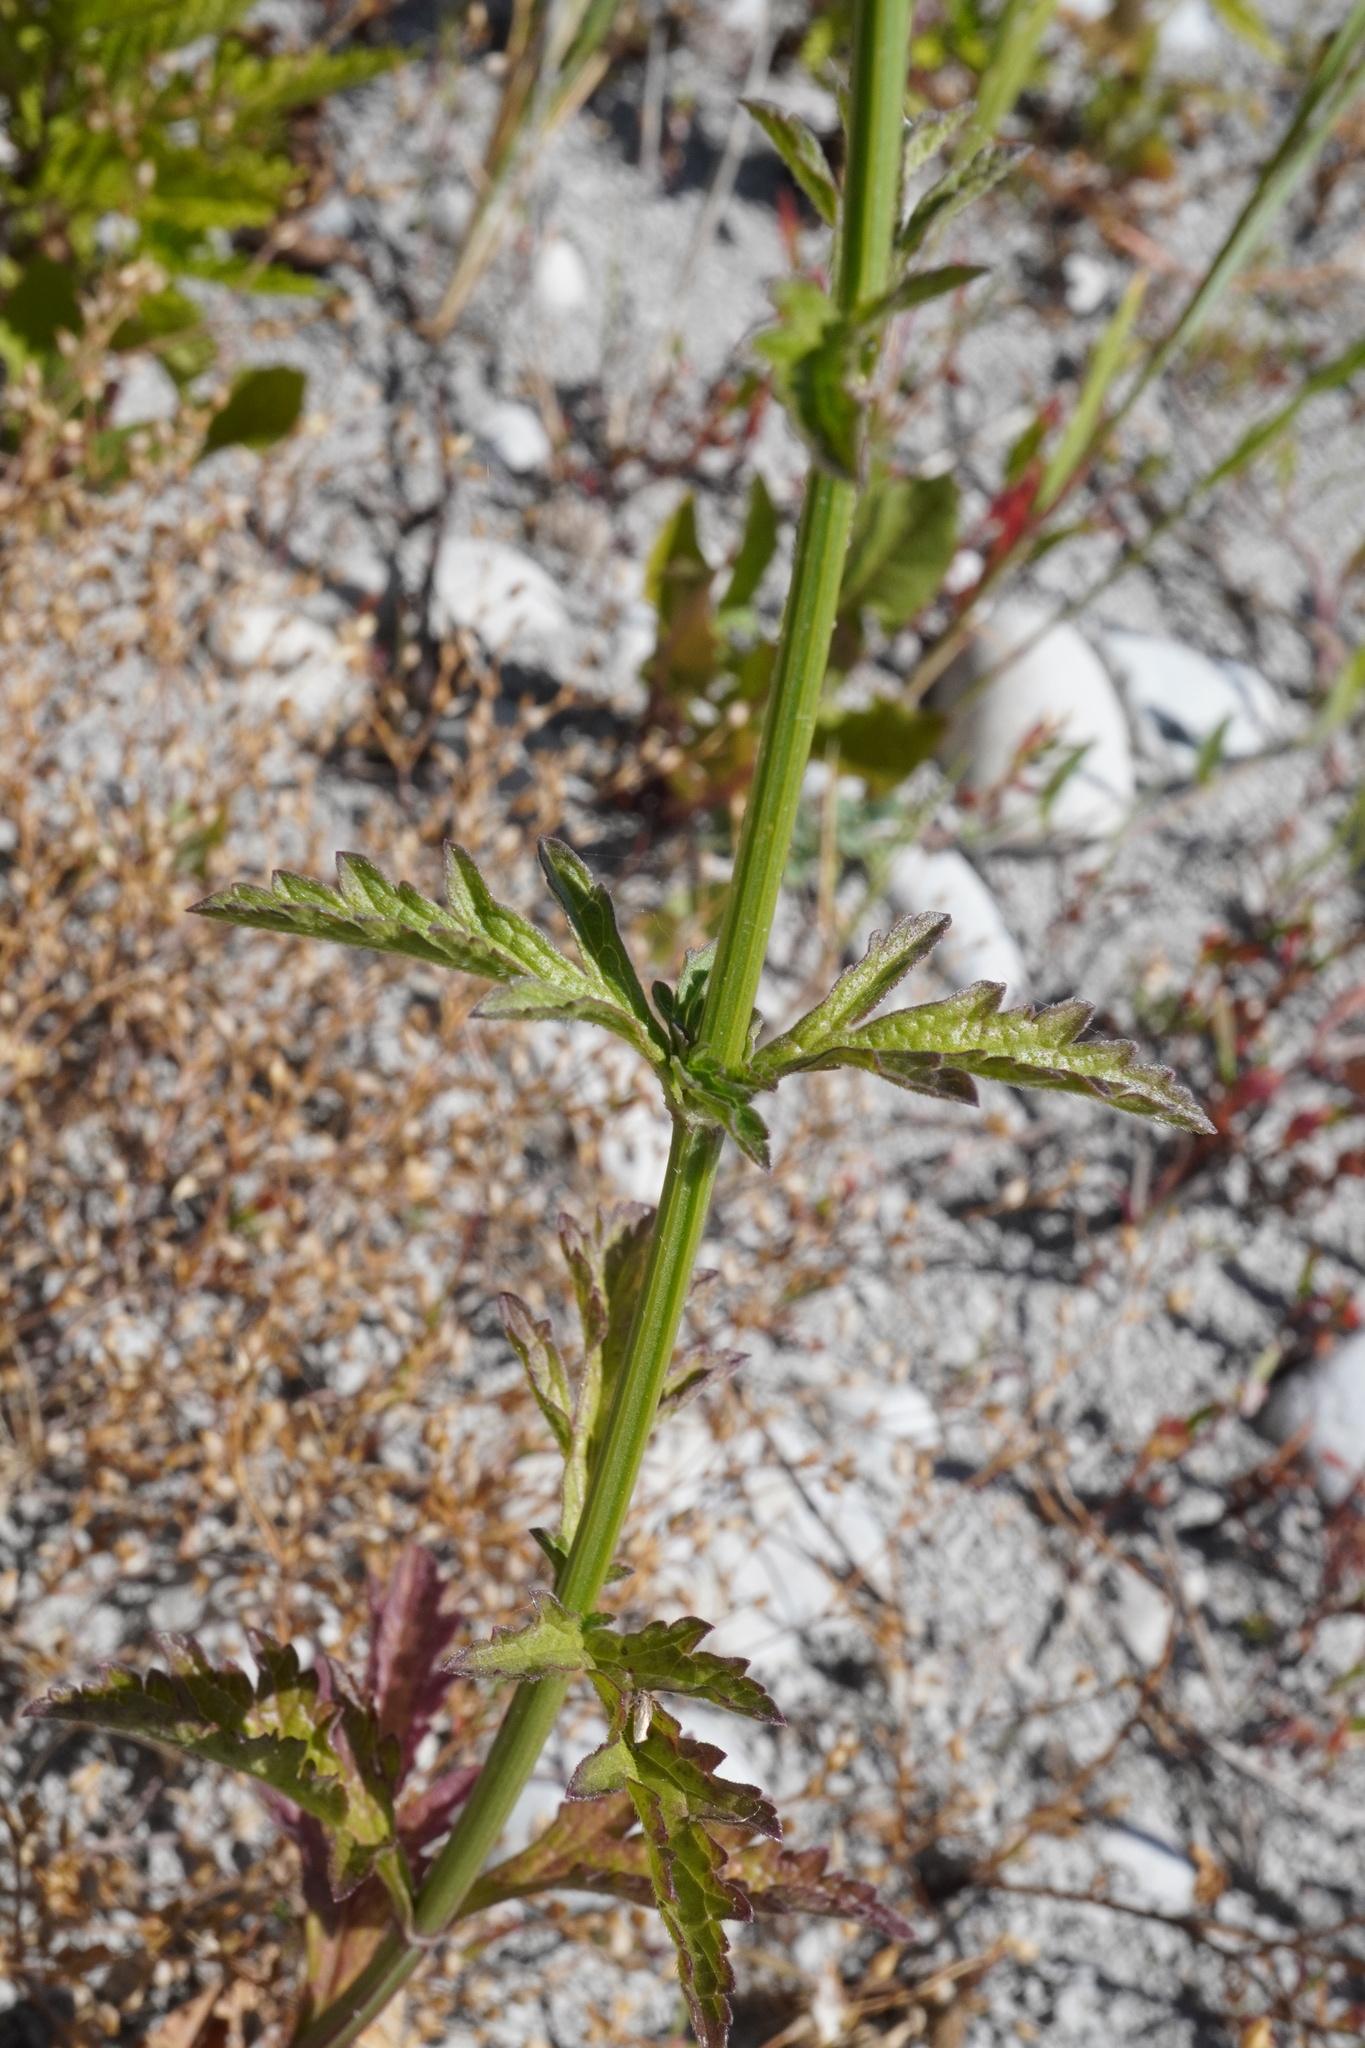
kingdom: Plantae
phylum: Tracheophyta
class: Magnoliopsida
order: Lamiales
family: Verbenaceae
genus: Verbena
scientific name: Verbena officinalis
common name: Vervain
